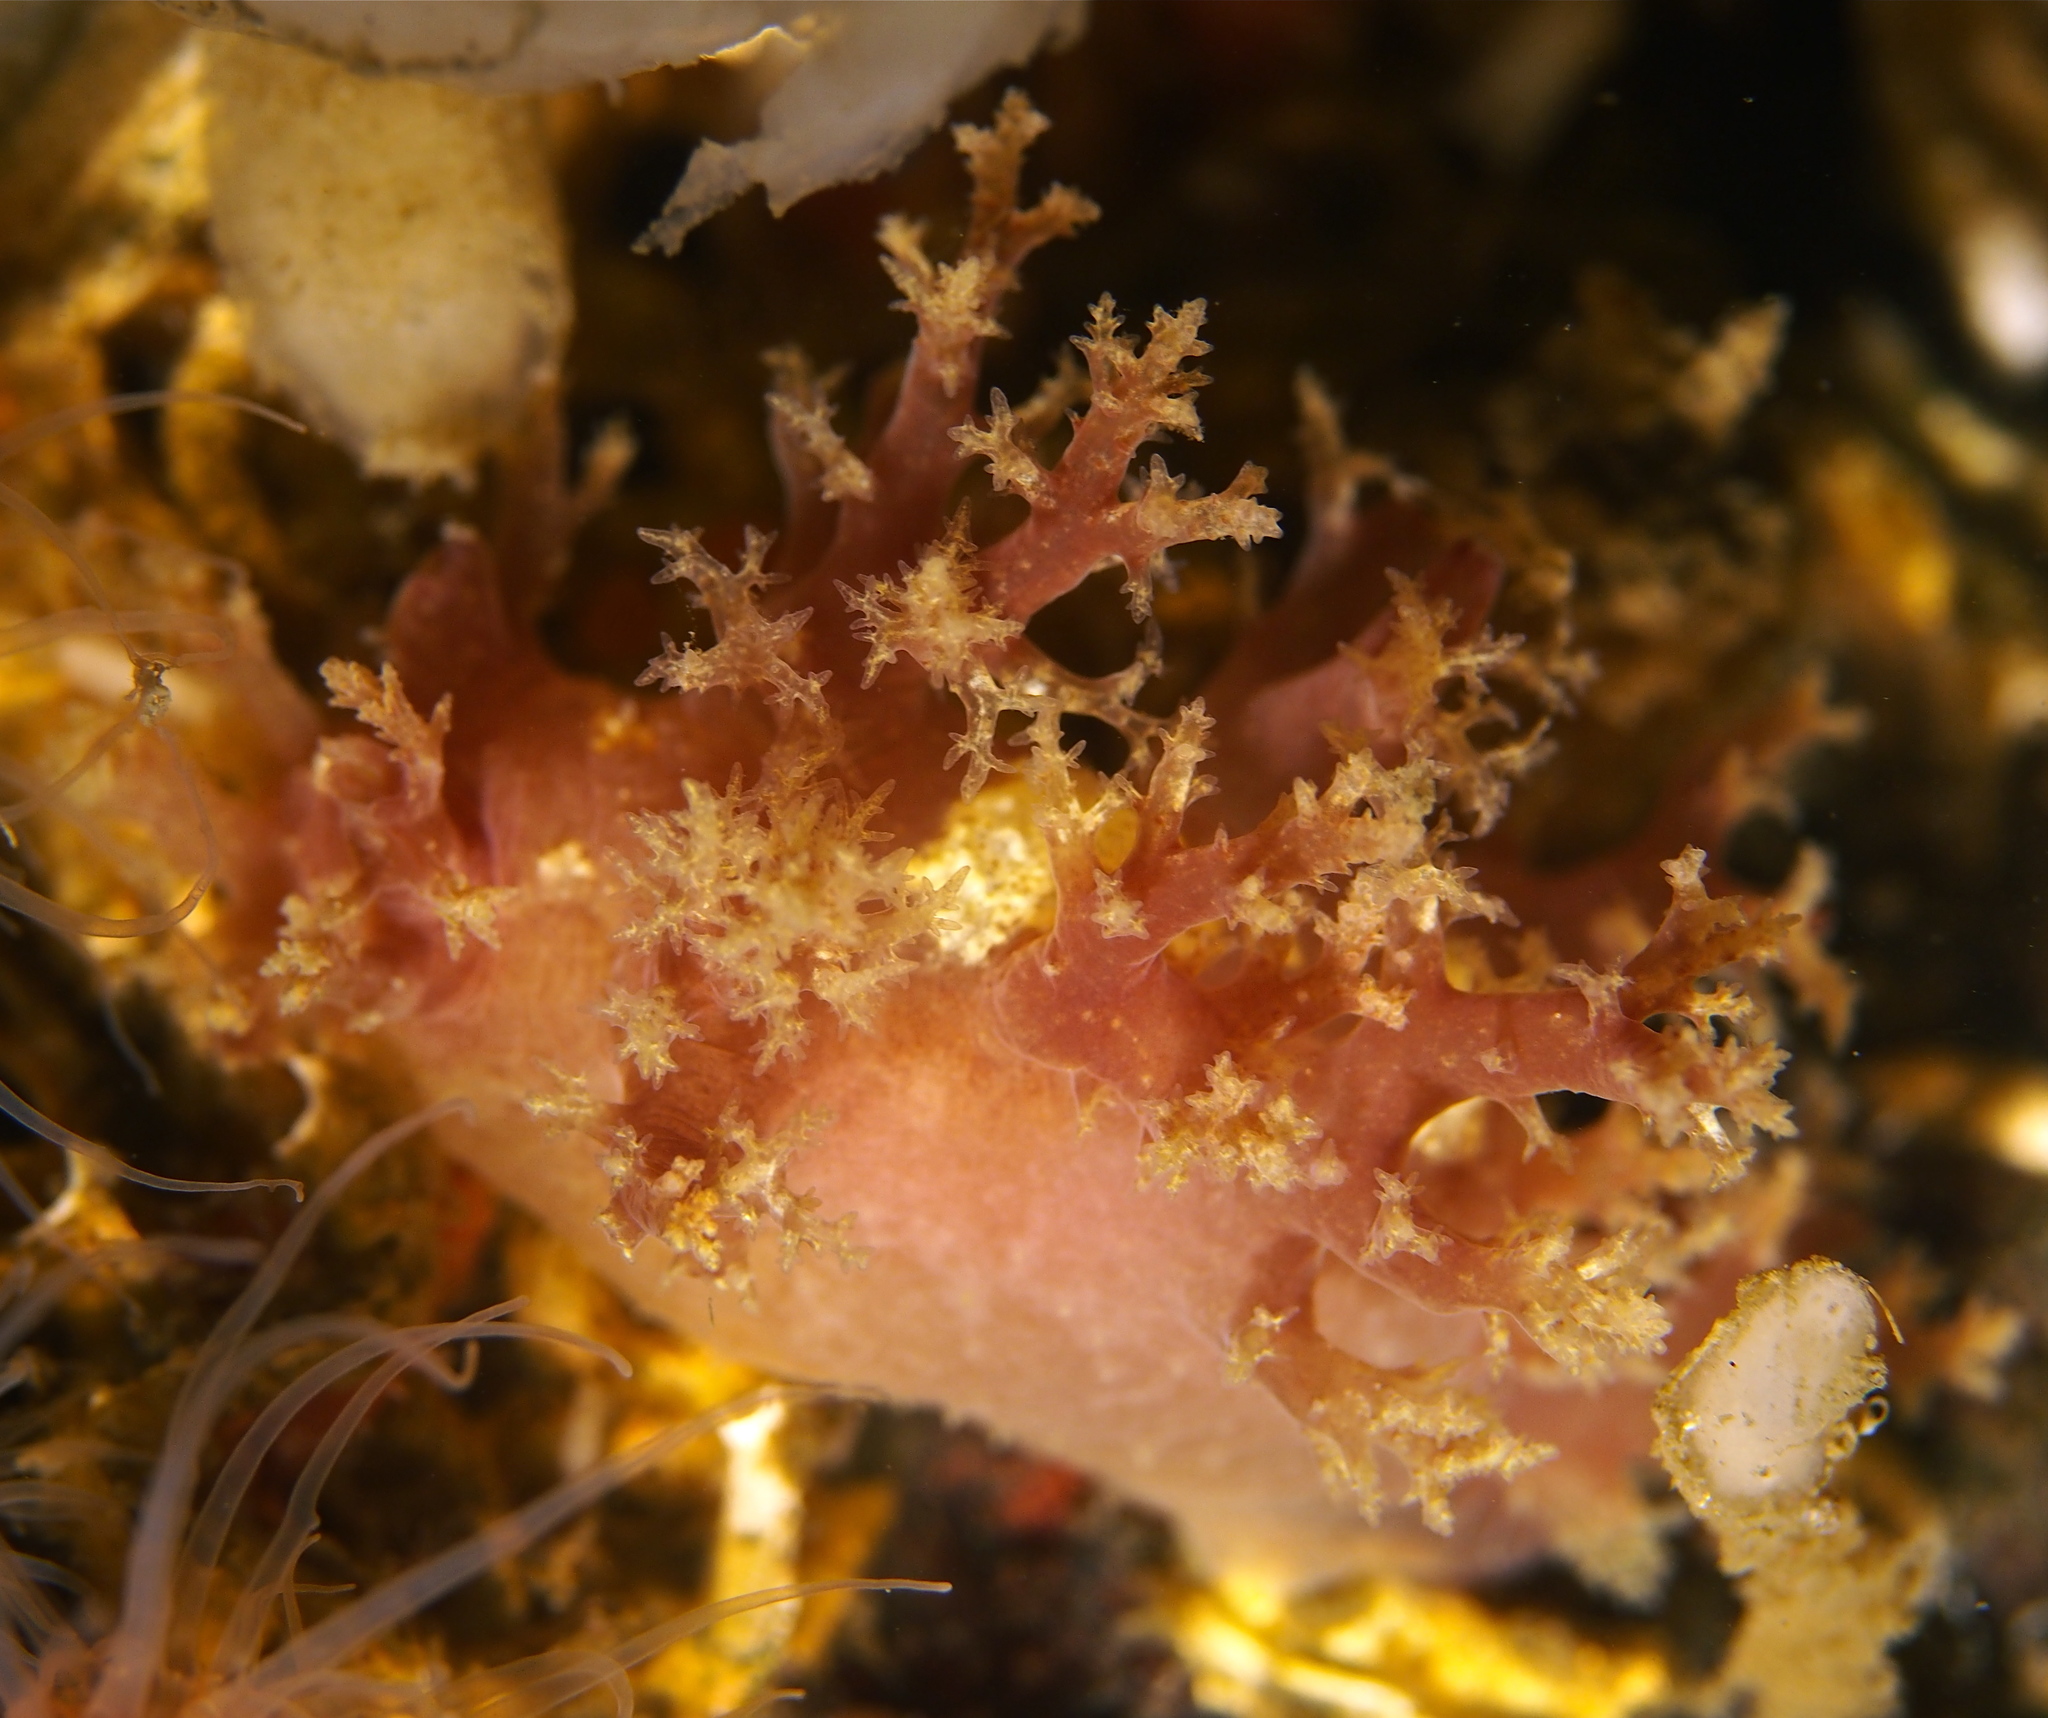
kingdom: Animalia
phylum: Mollusca
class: Gastropoda
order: Nudibranchia
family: Dendronotidae
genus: Dendronotus
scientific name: Dendronotus lacteus
